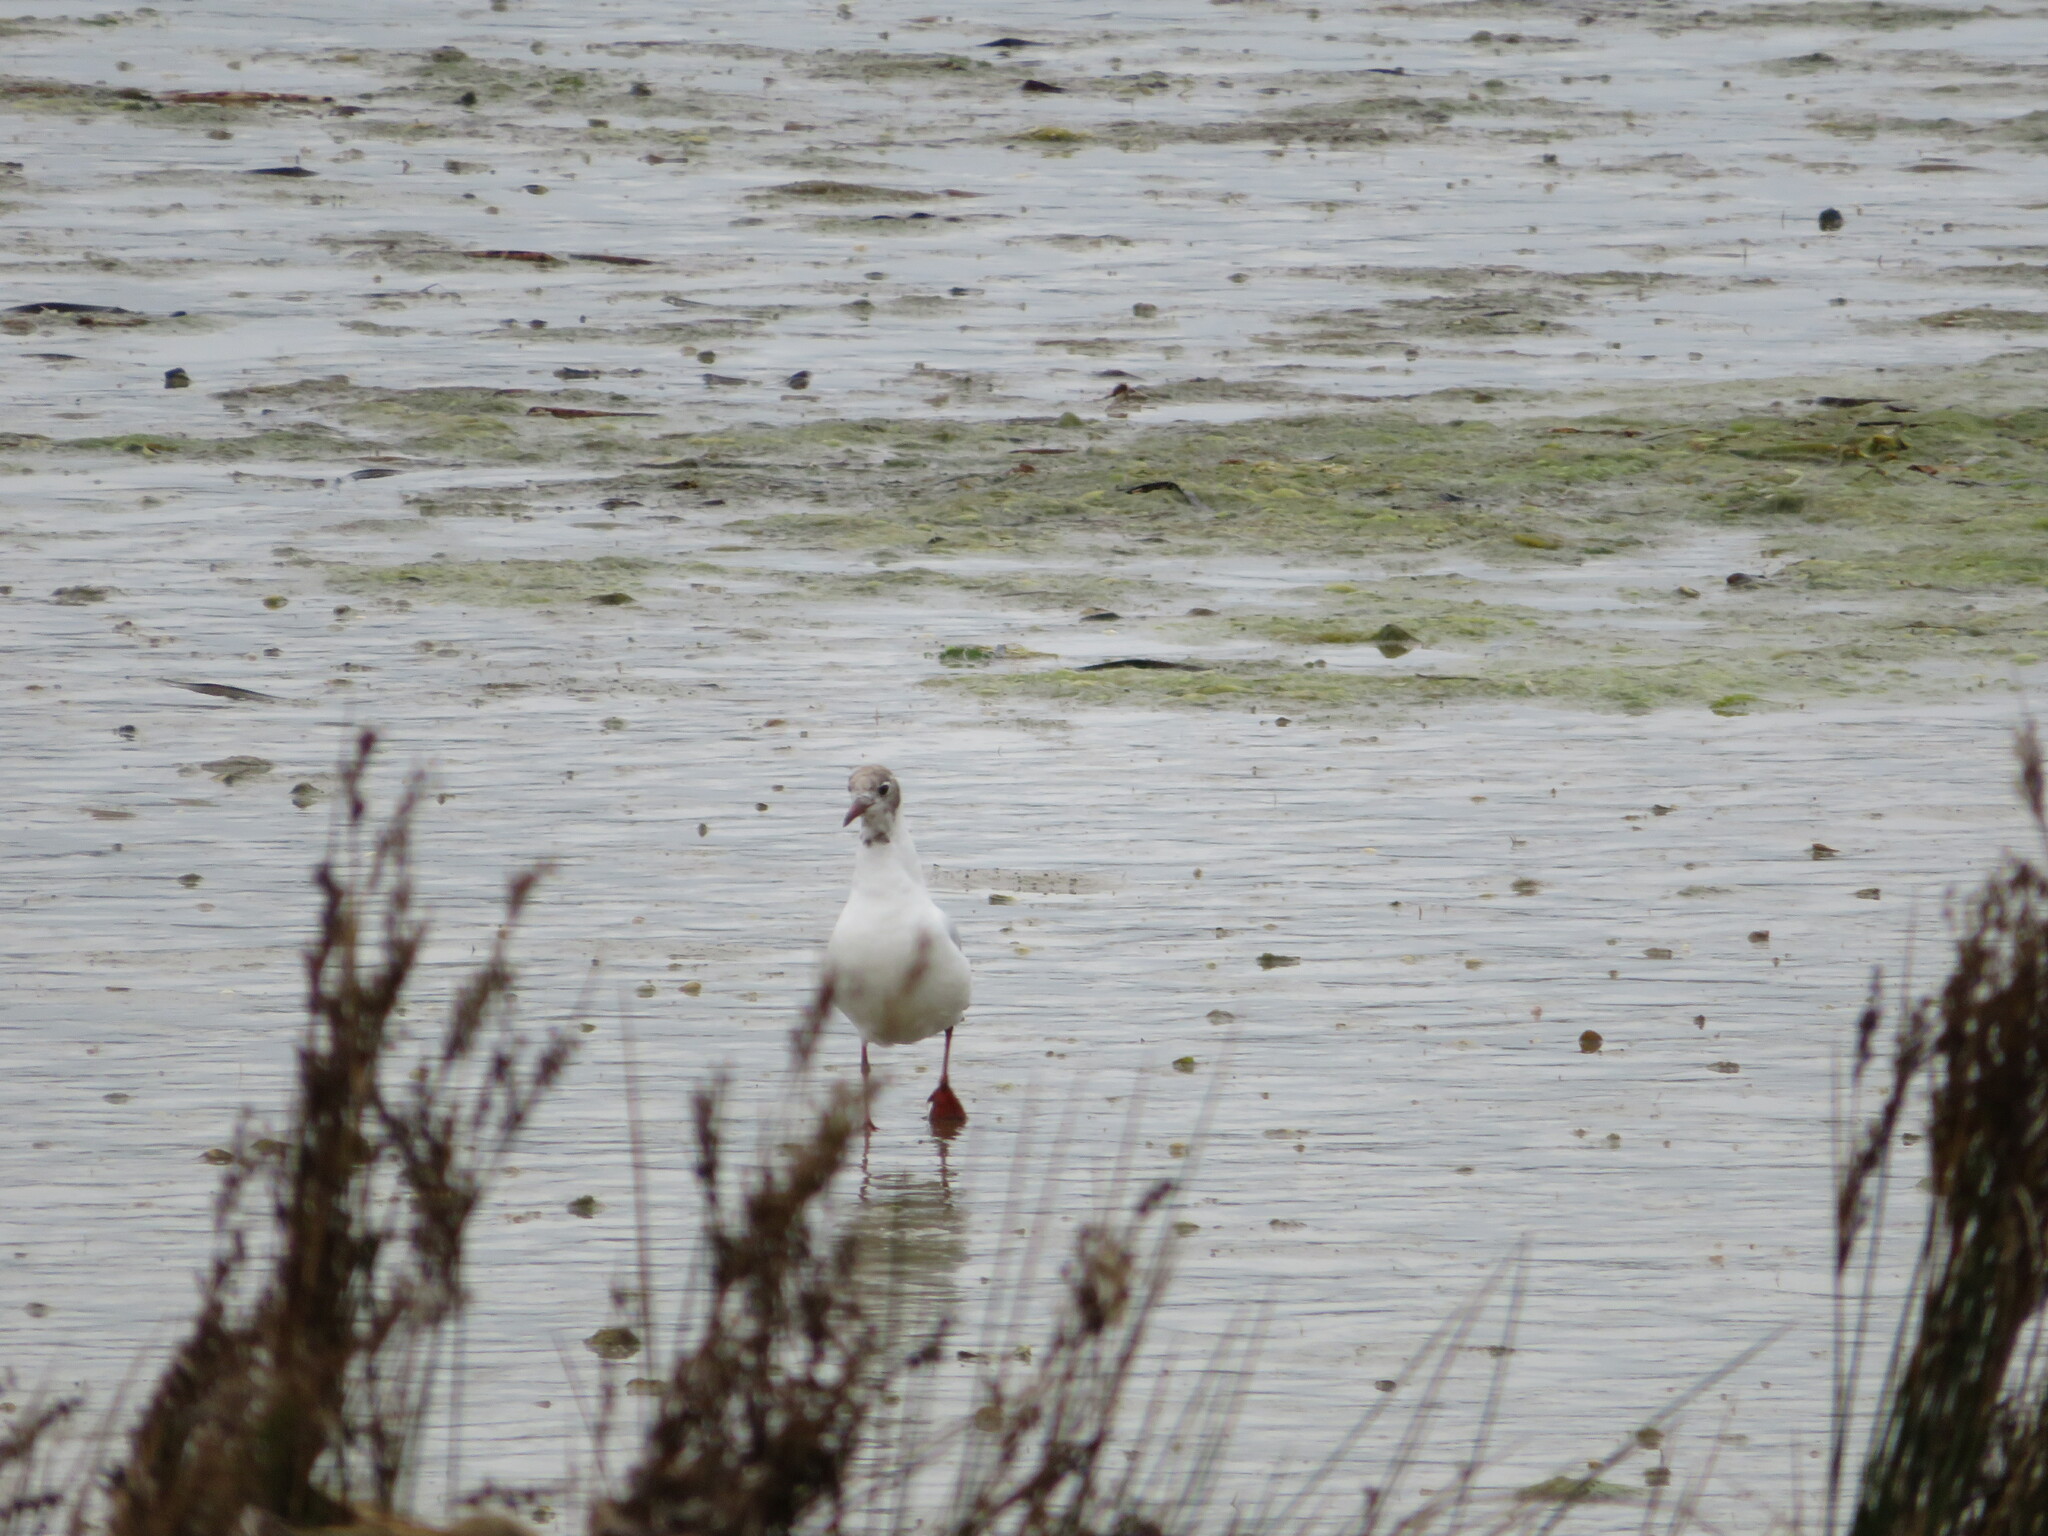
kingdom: Animalia
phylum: Chordata
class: Aves
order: Charadriiformes
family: Laridae
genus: Chroicocephalus
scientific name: Chroicocephalus ridibundus
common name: Black-headed gull
